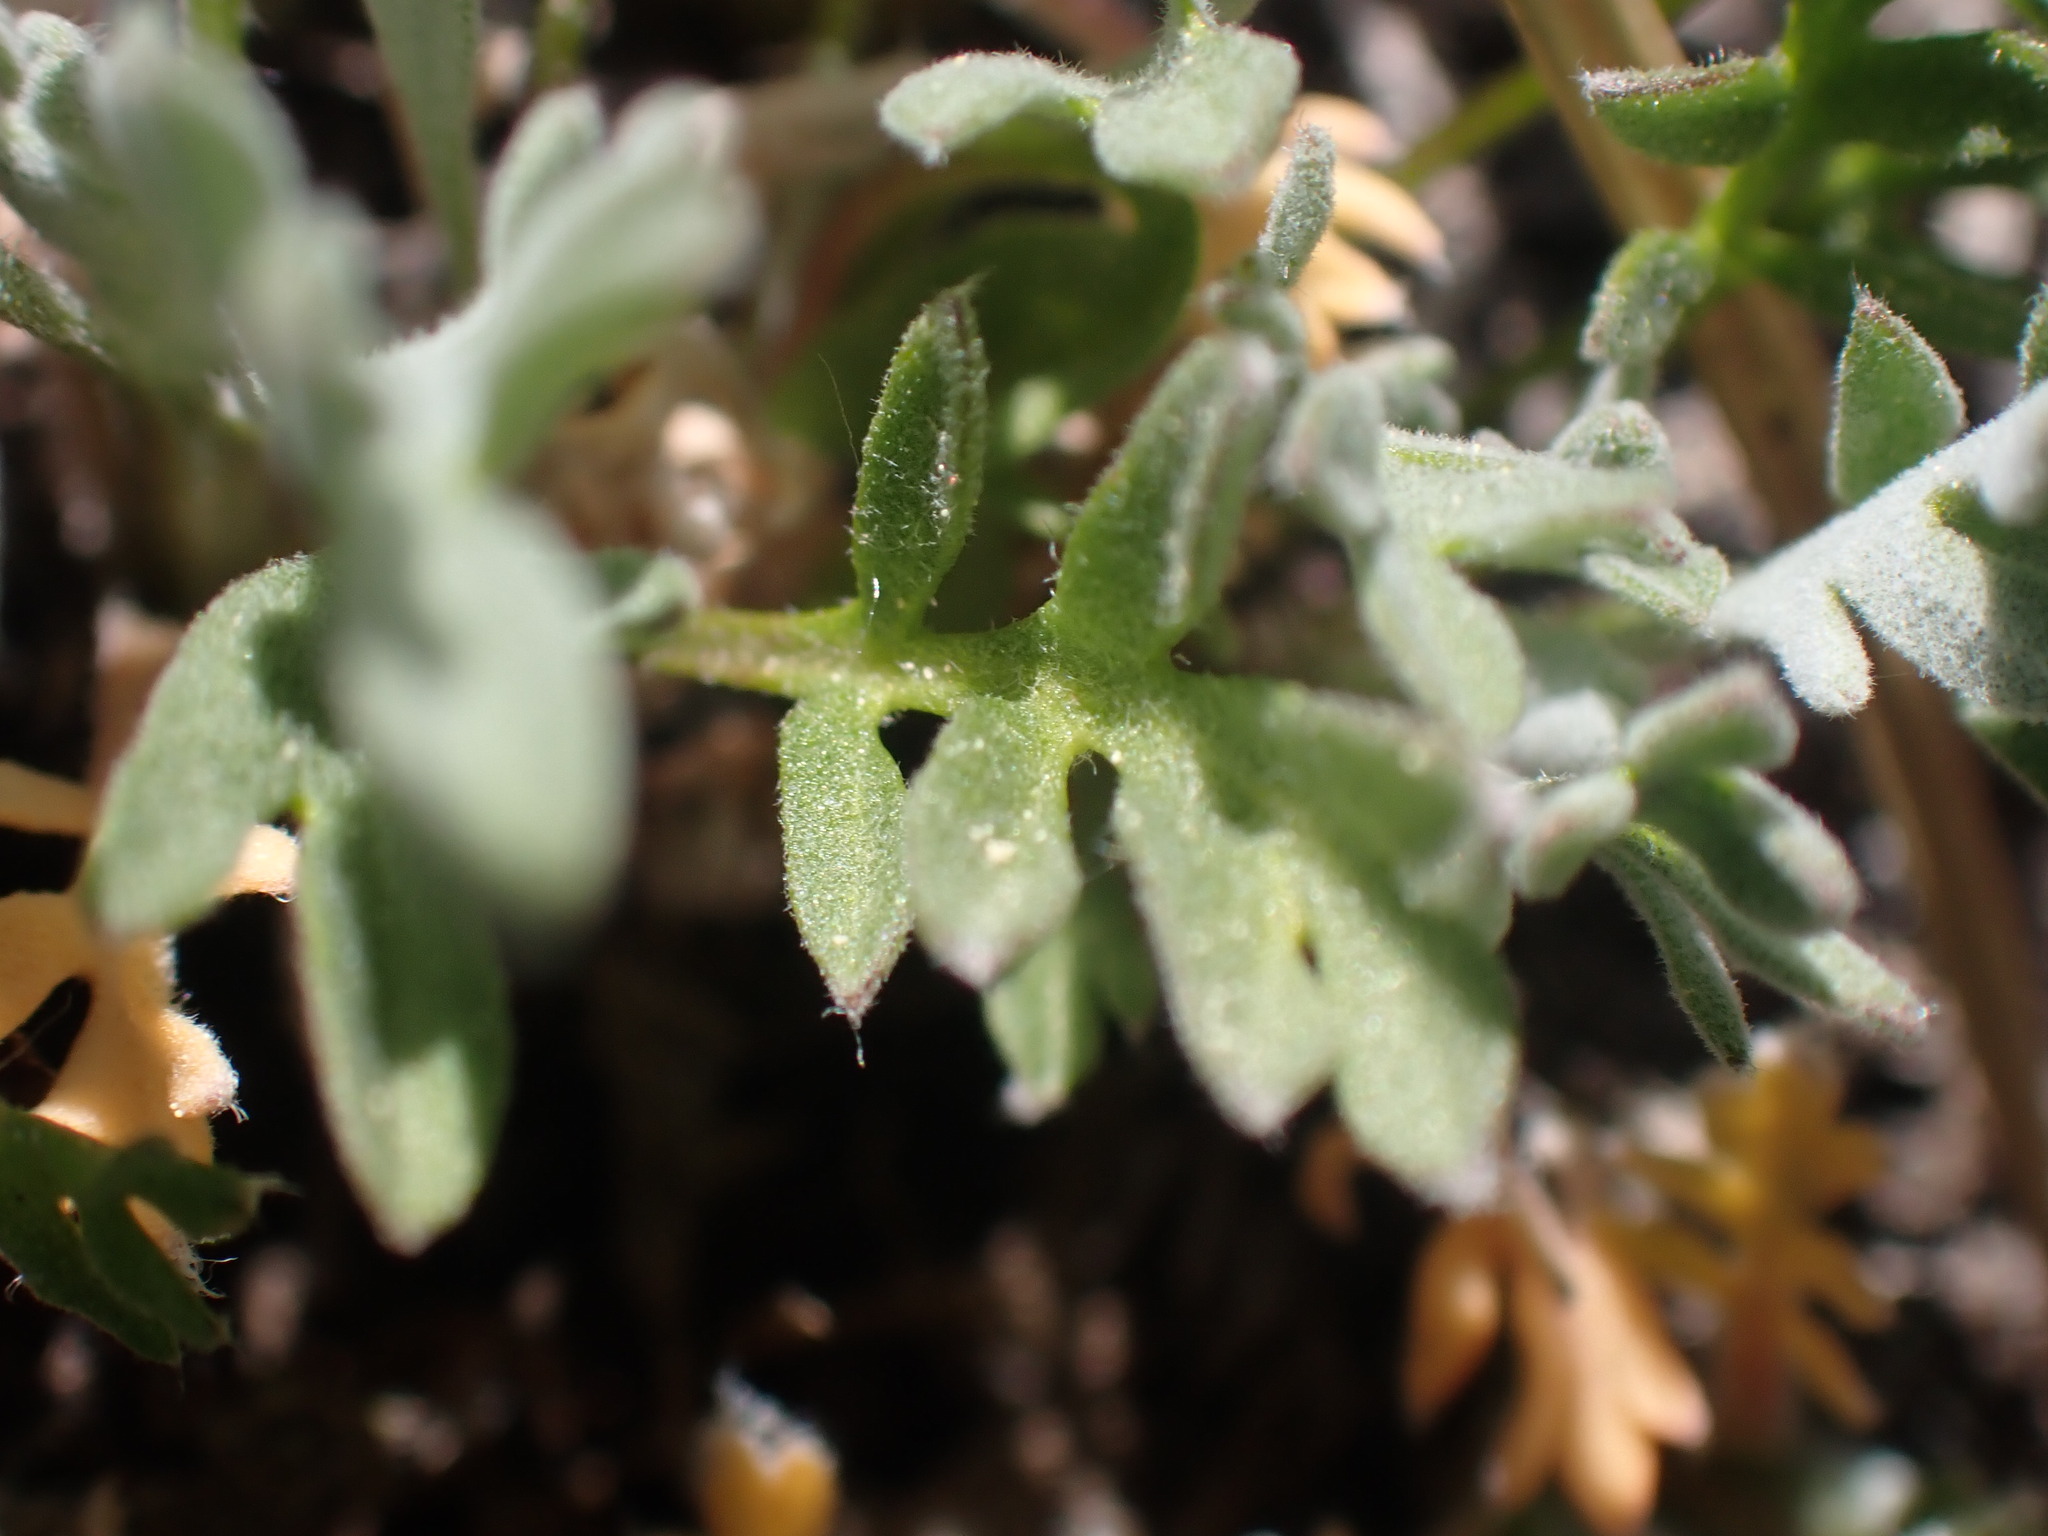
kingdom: Plantae
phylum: Tracheophyta
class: Magnoliopsida
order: Brassicales
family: Brassicaceae
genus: Smelowskia
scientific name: Smelowskia americana
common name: American false candytuft
